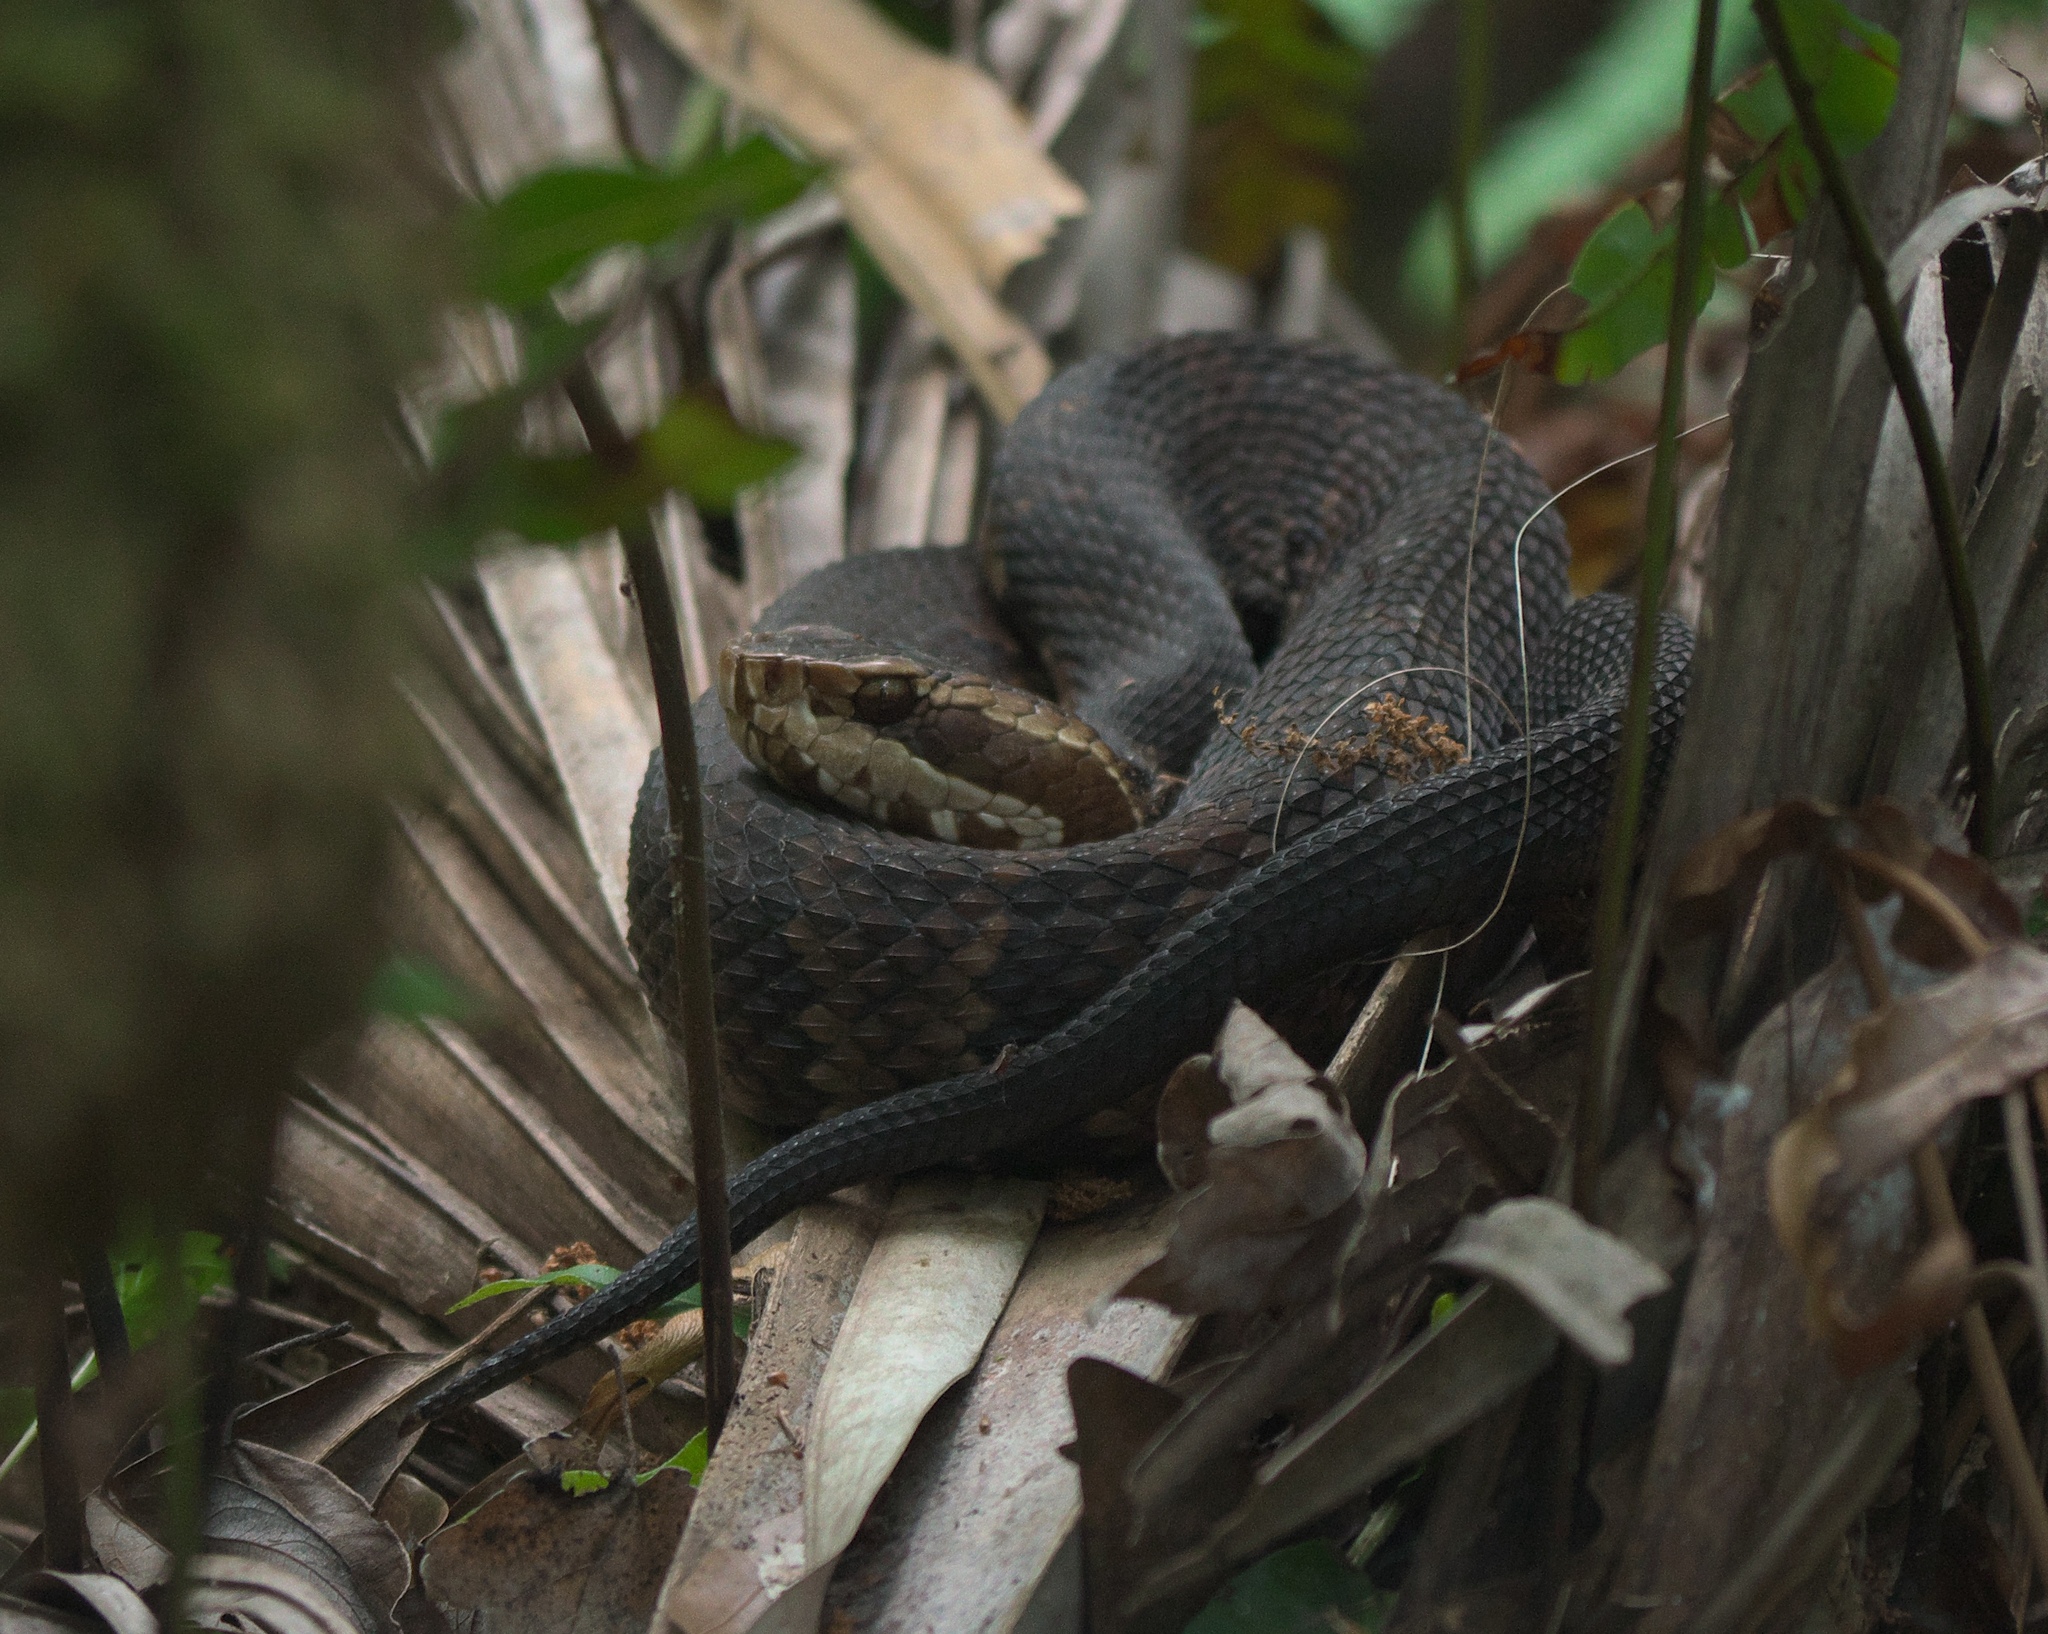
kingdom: Animalia
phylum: Chordata
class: Squamata
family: Viperidae
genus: Agkistrodon
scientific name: Agkistrodon conanti
